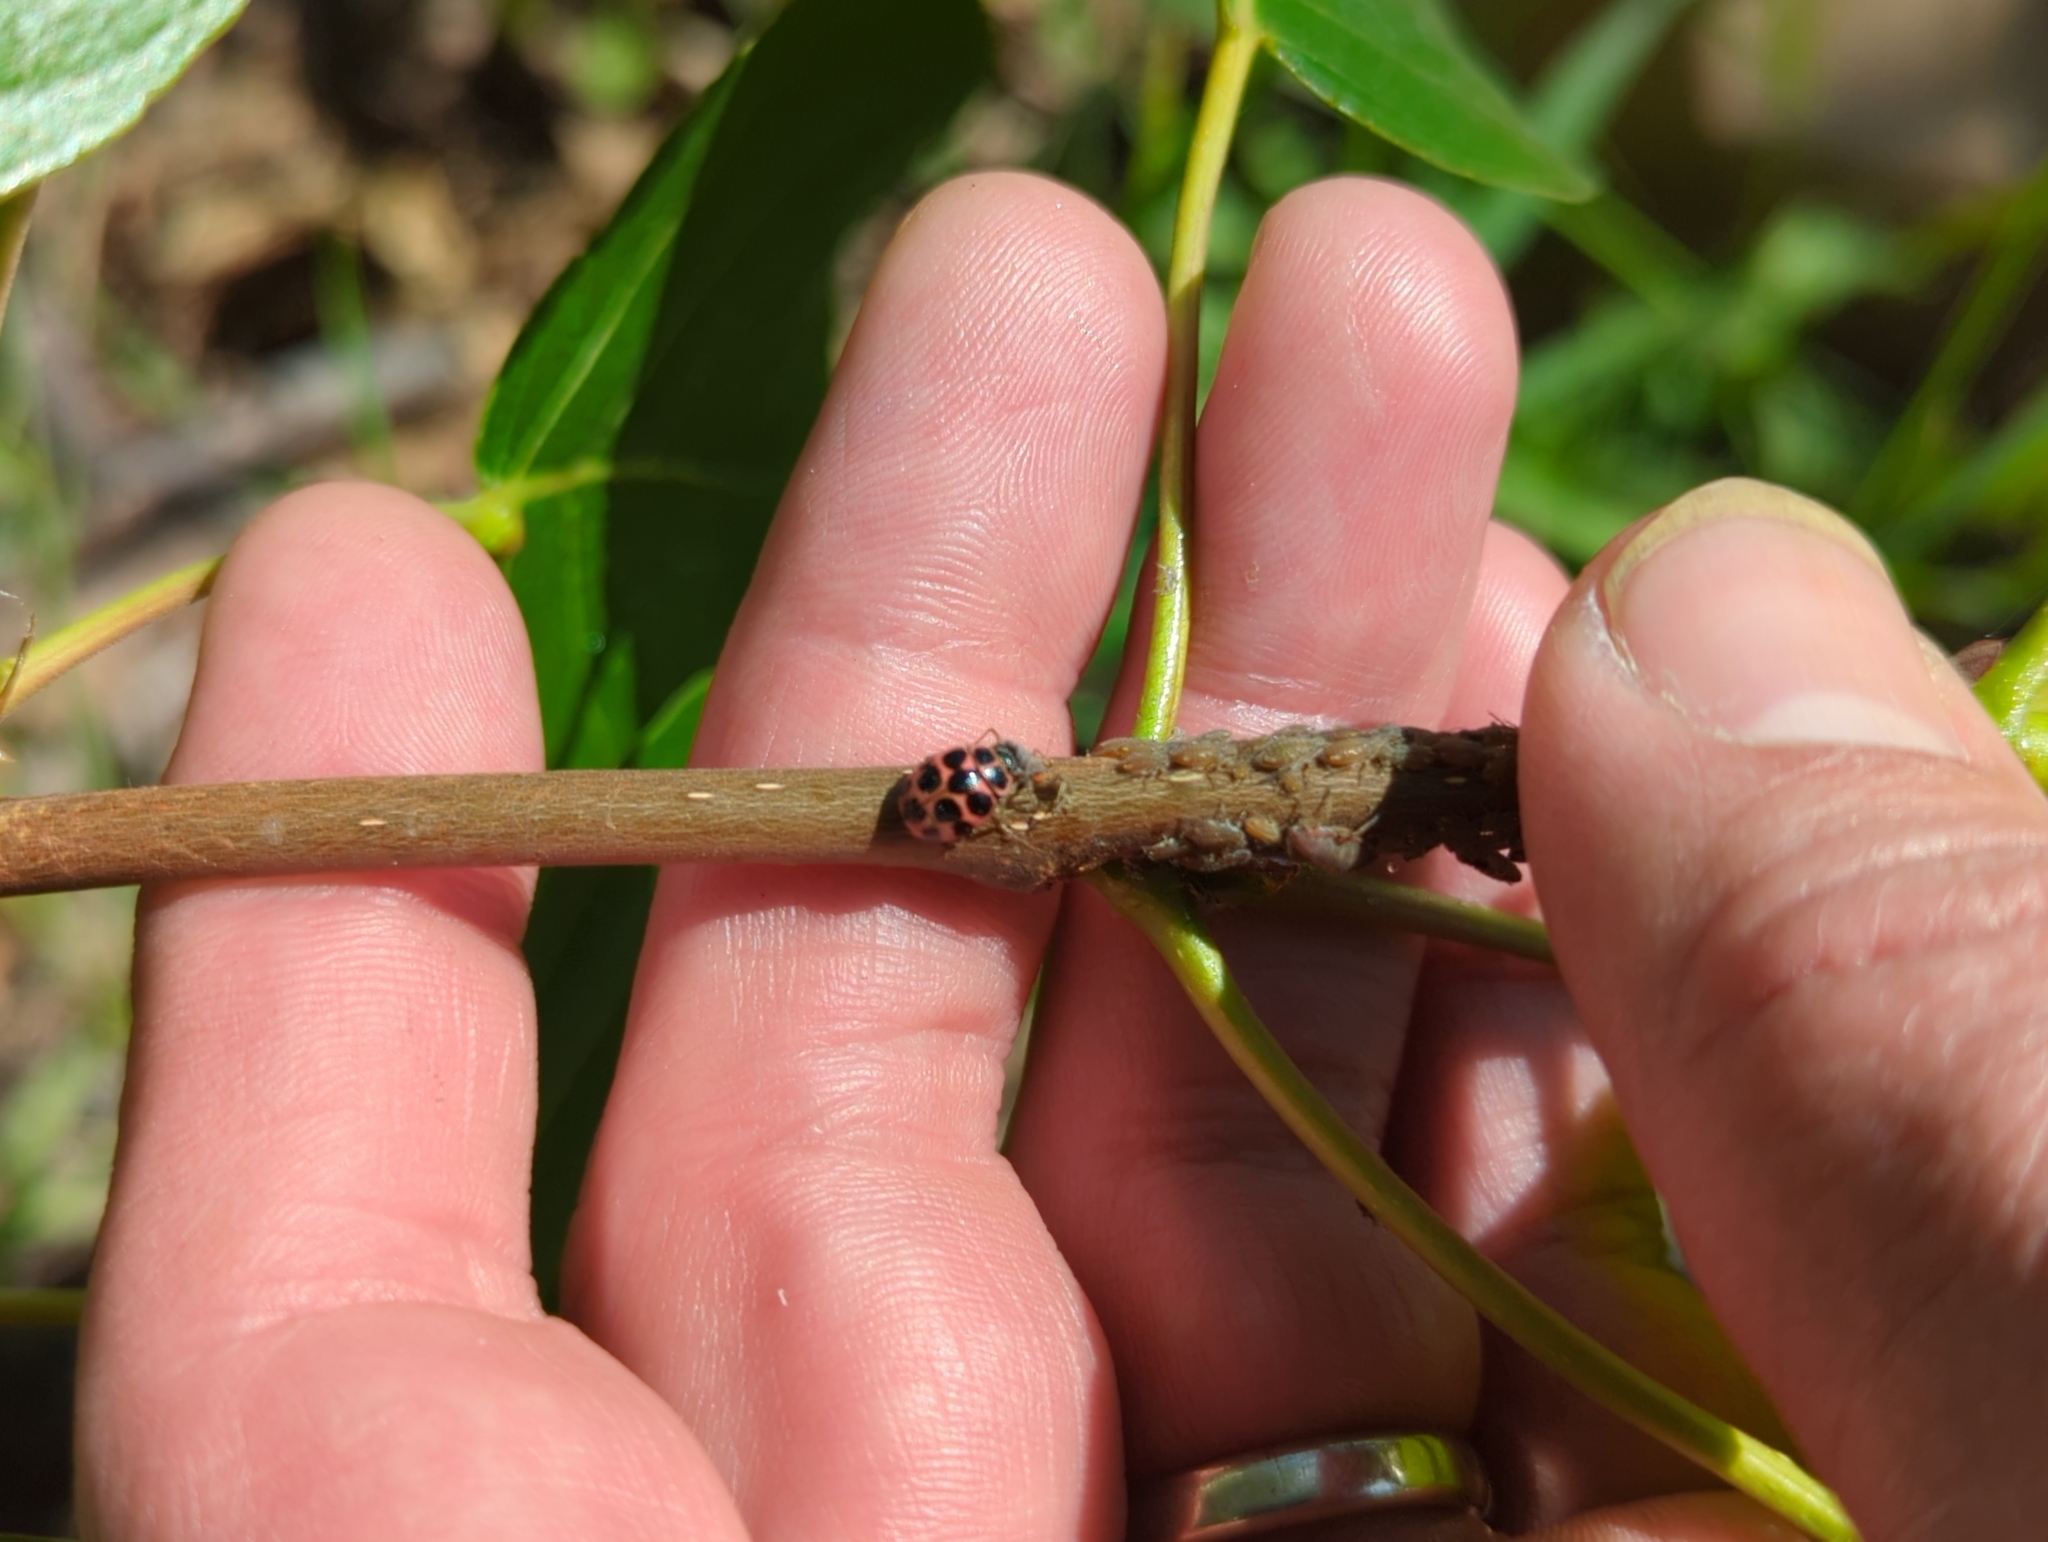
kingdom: Animalia
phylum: Arthropoda
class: Insecta
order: Coleoptera
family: Coccinellidae
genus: Calvia
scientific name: Calvia quatuordecimguttata
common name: Cream-spot ladybird
